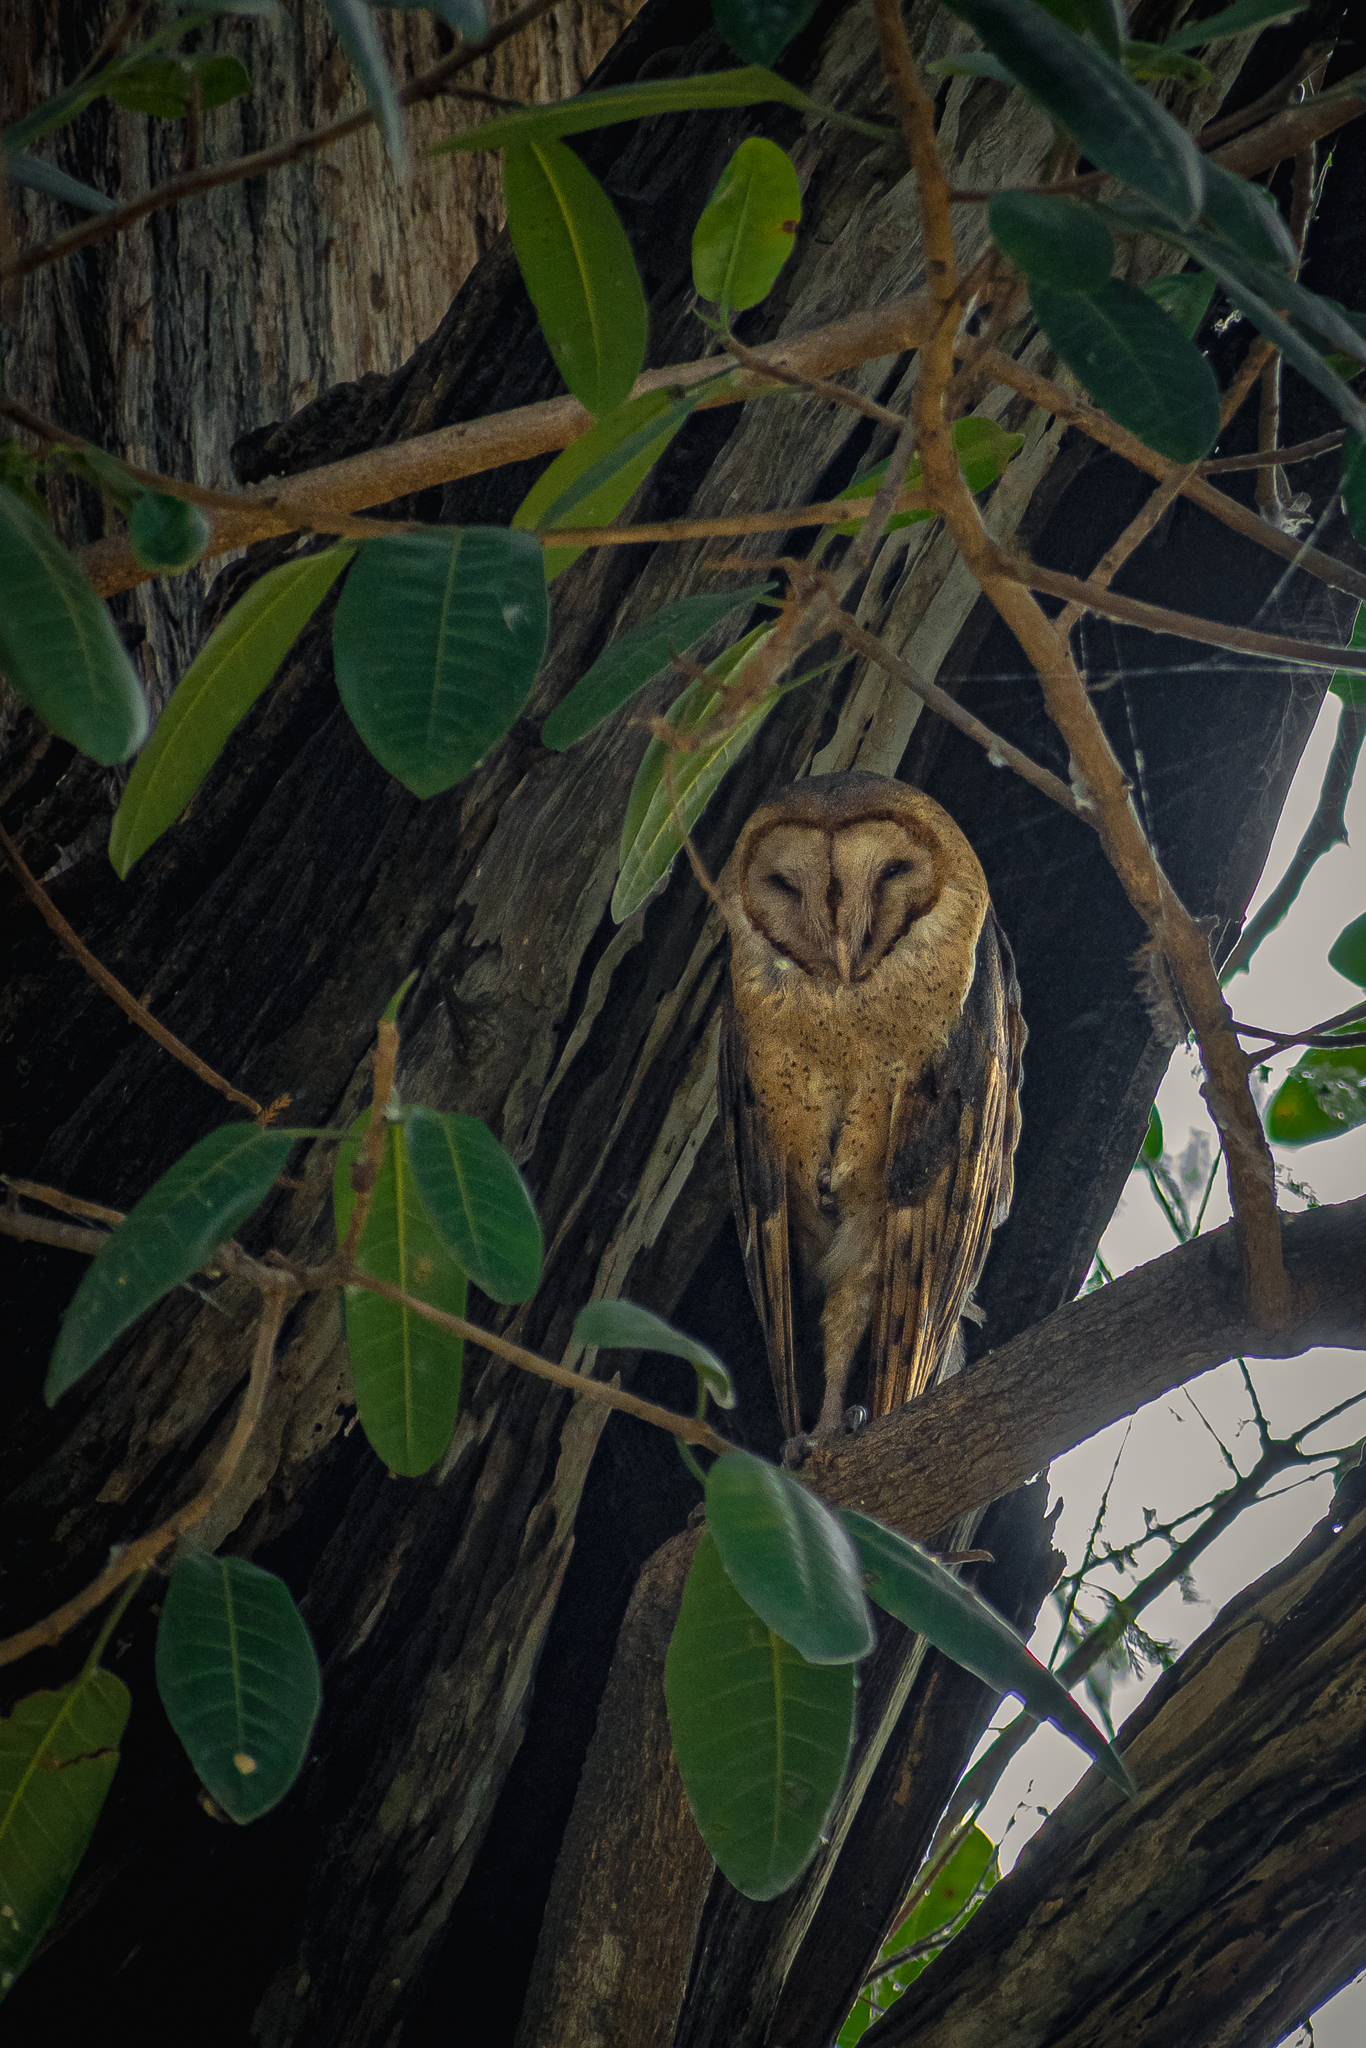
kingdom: Animalia
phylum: Chordata
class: Aves
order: Strigiformes
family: Tytonidae
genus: Tyto
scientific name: Tyto alba
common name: Barn owl
